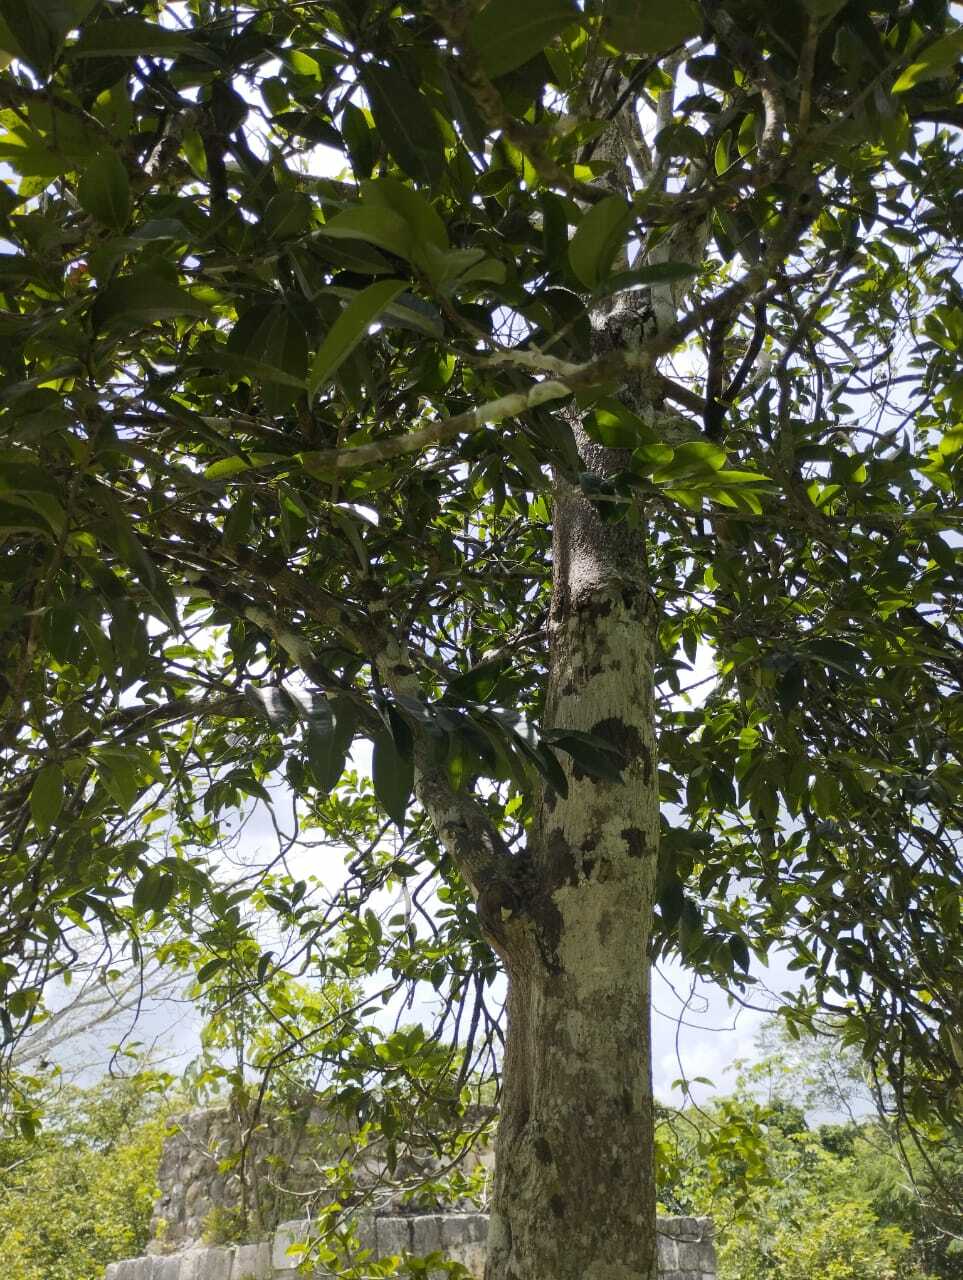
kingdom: Plantae
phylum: Tracheophyta
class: Magnoliopsida
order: Magnoliales
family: Annonaceae
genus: Annona
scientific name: Annona purpurea
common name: Negrohead
